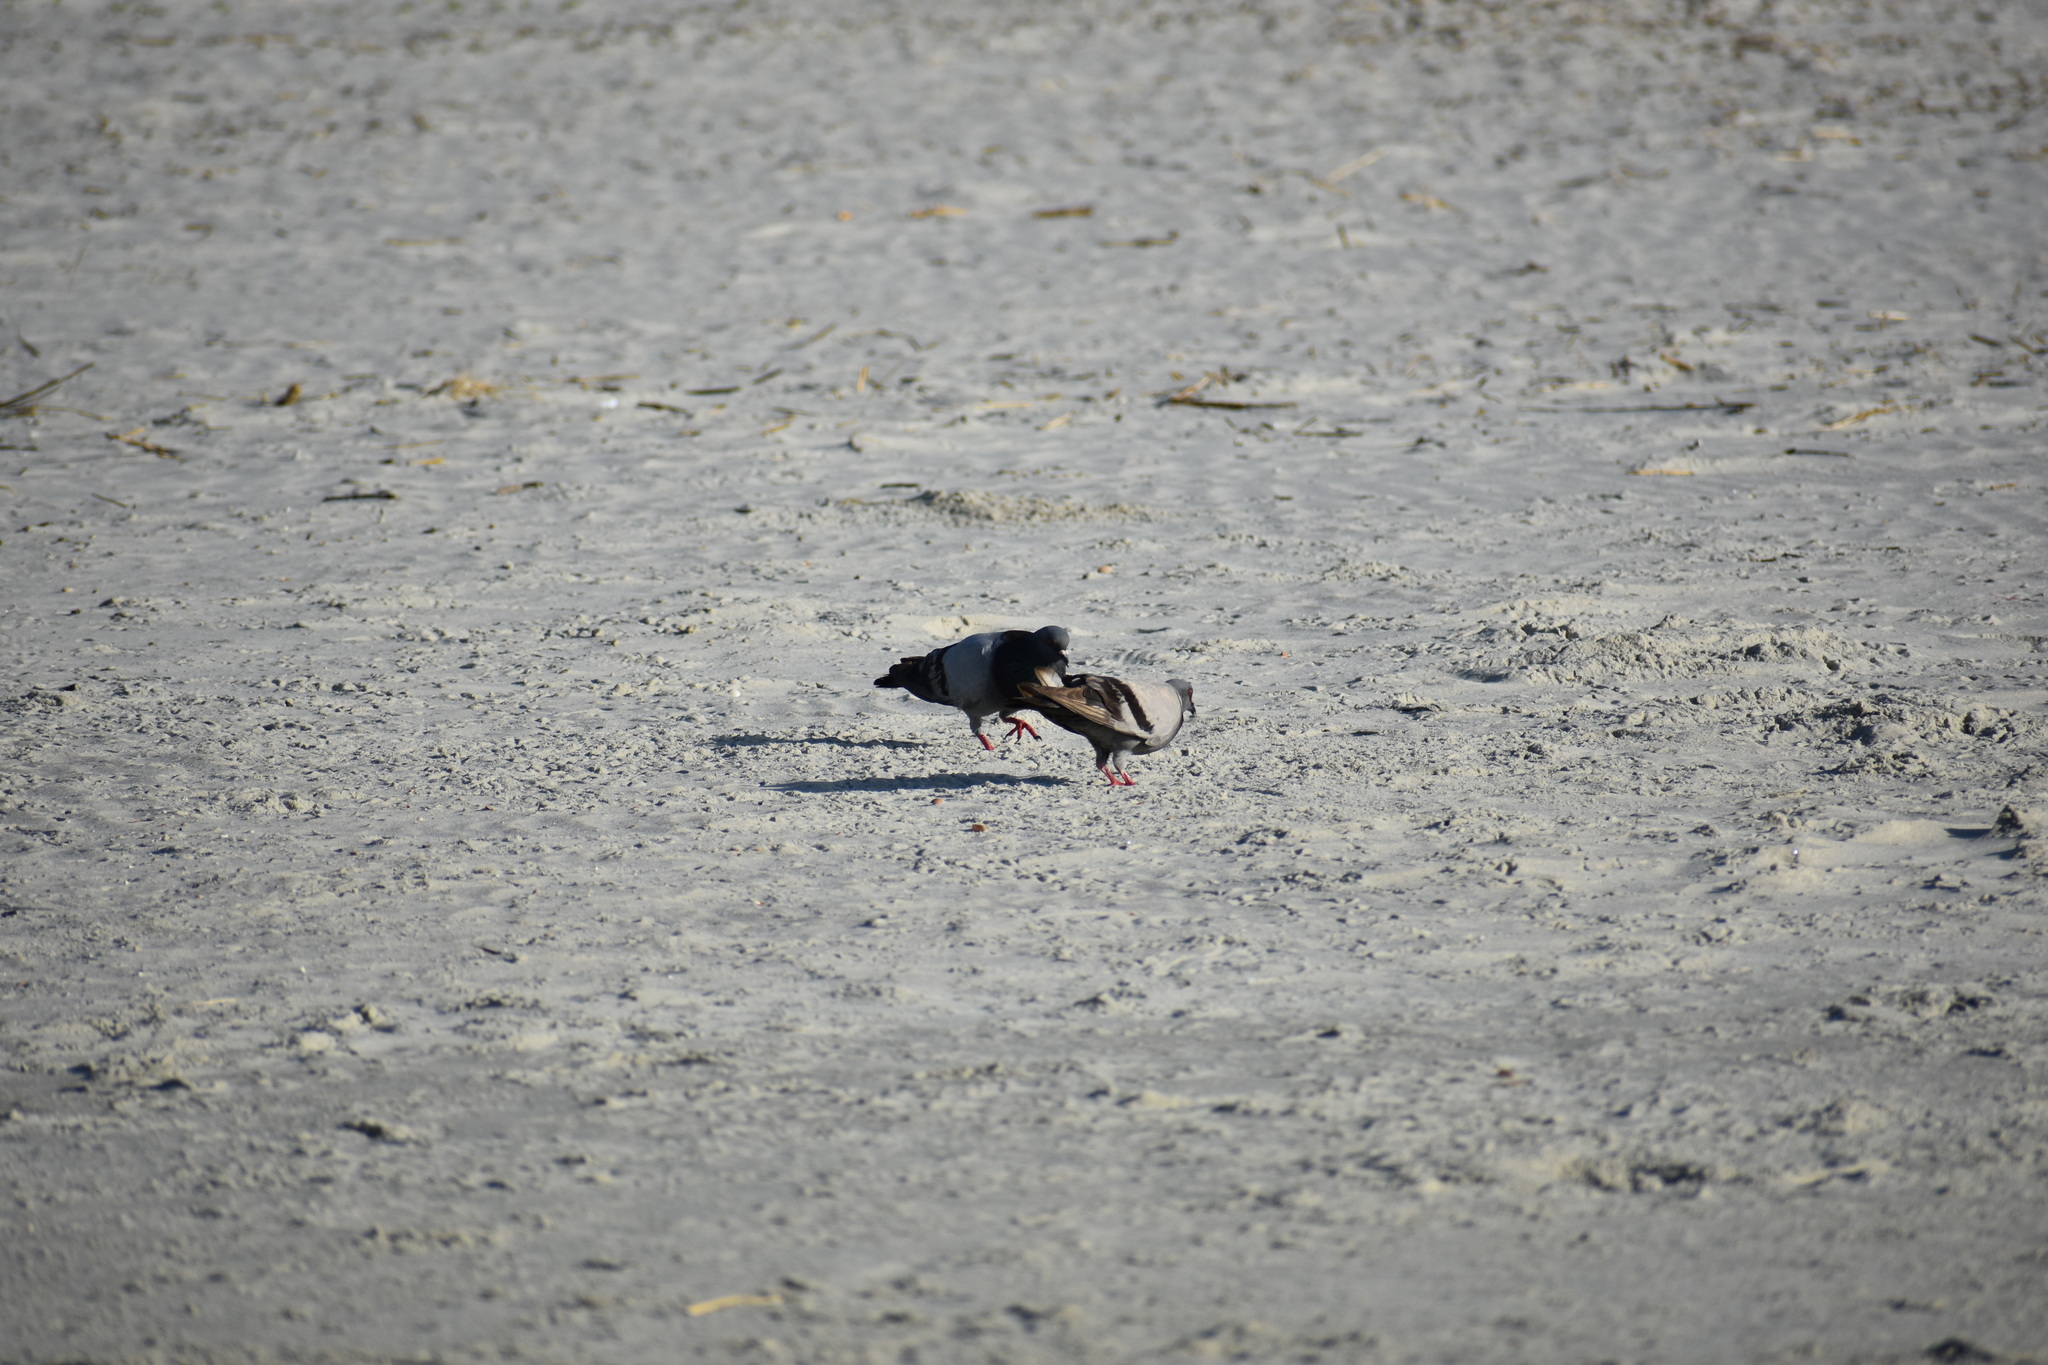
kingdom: Animalia
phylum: Chordata
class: Aves
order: Columbiformes
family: Columbidae
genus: Columba
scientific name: Columba livia
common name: Rock pigeon
